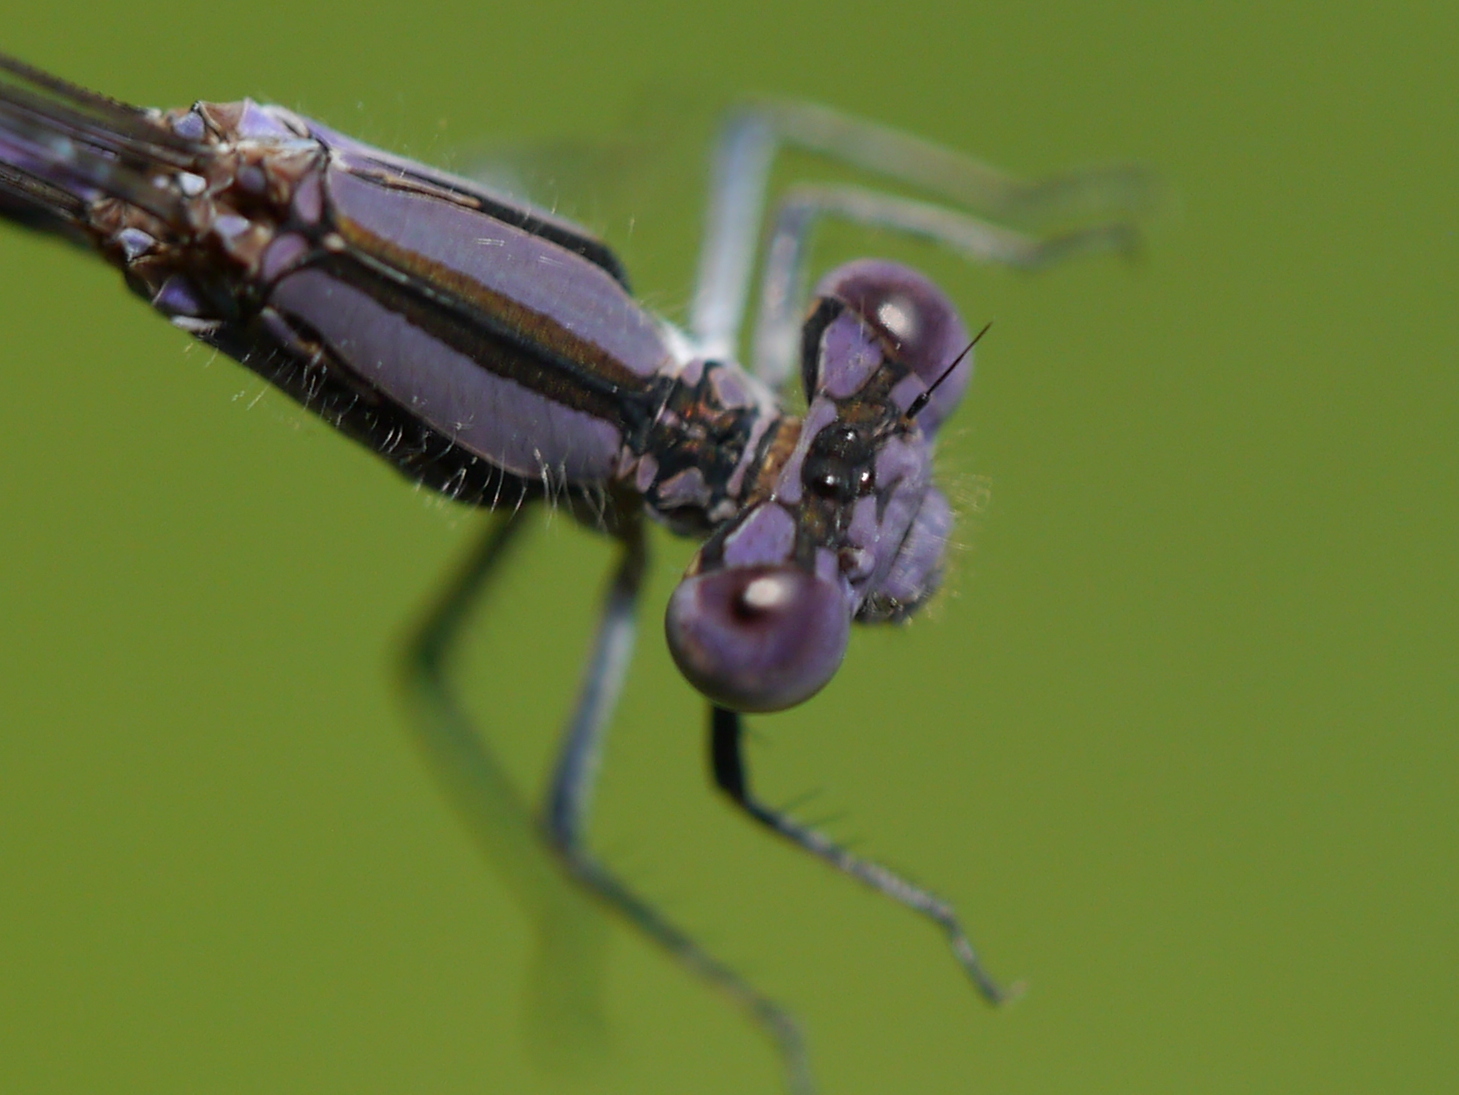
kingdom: Animalia
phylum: Arthropoda
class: Insecta
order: Odonata
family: Coenagrionidae
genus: Argia
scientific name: Argia fumipennis
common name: Variable dancer
